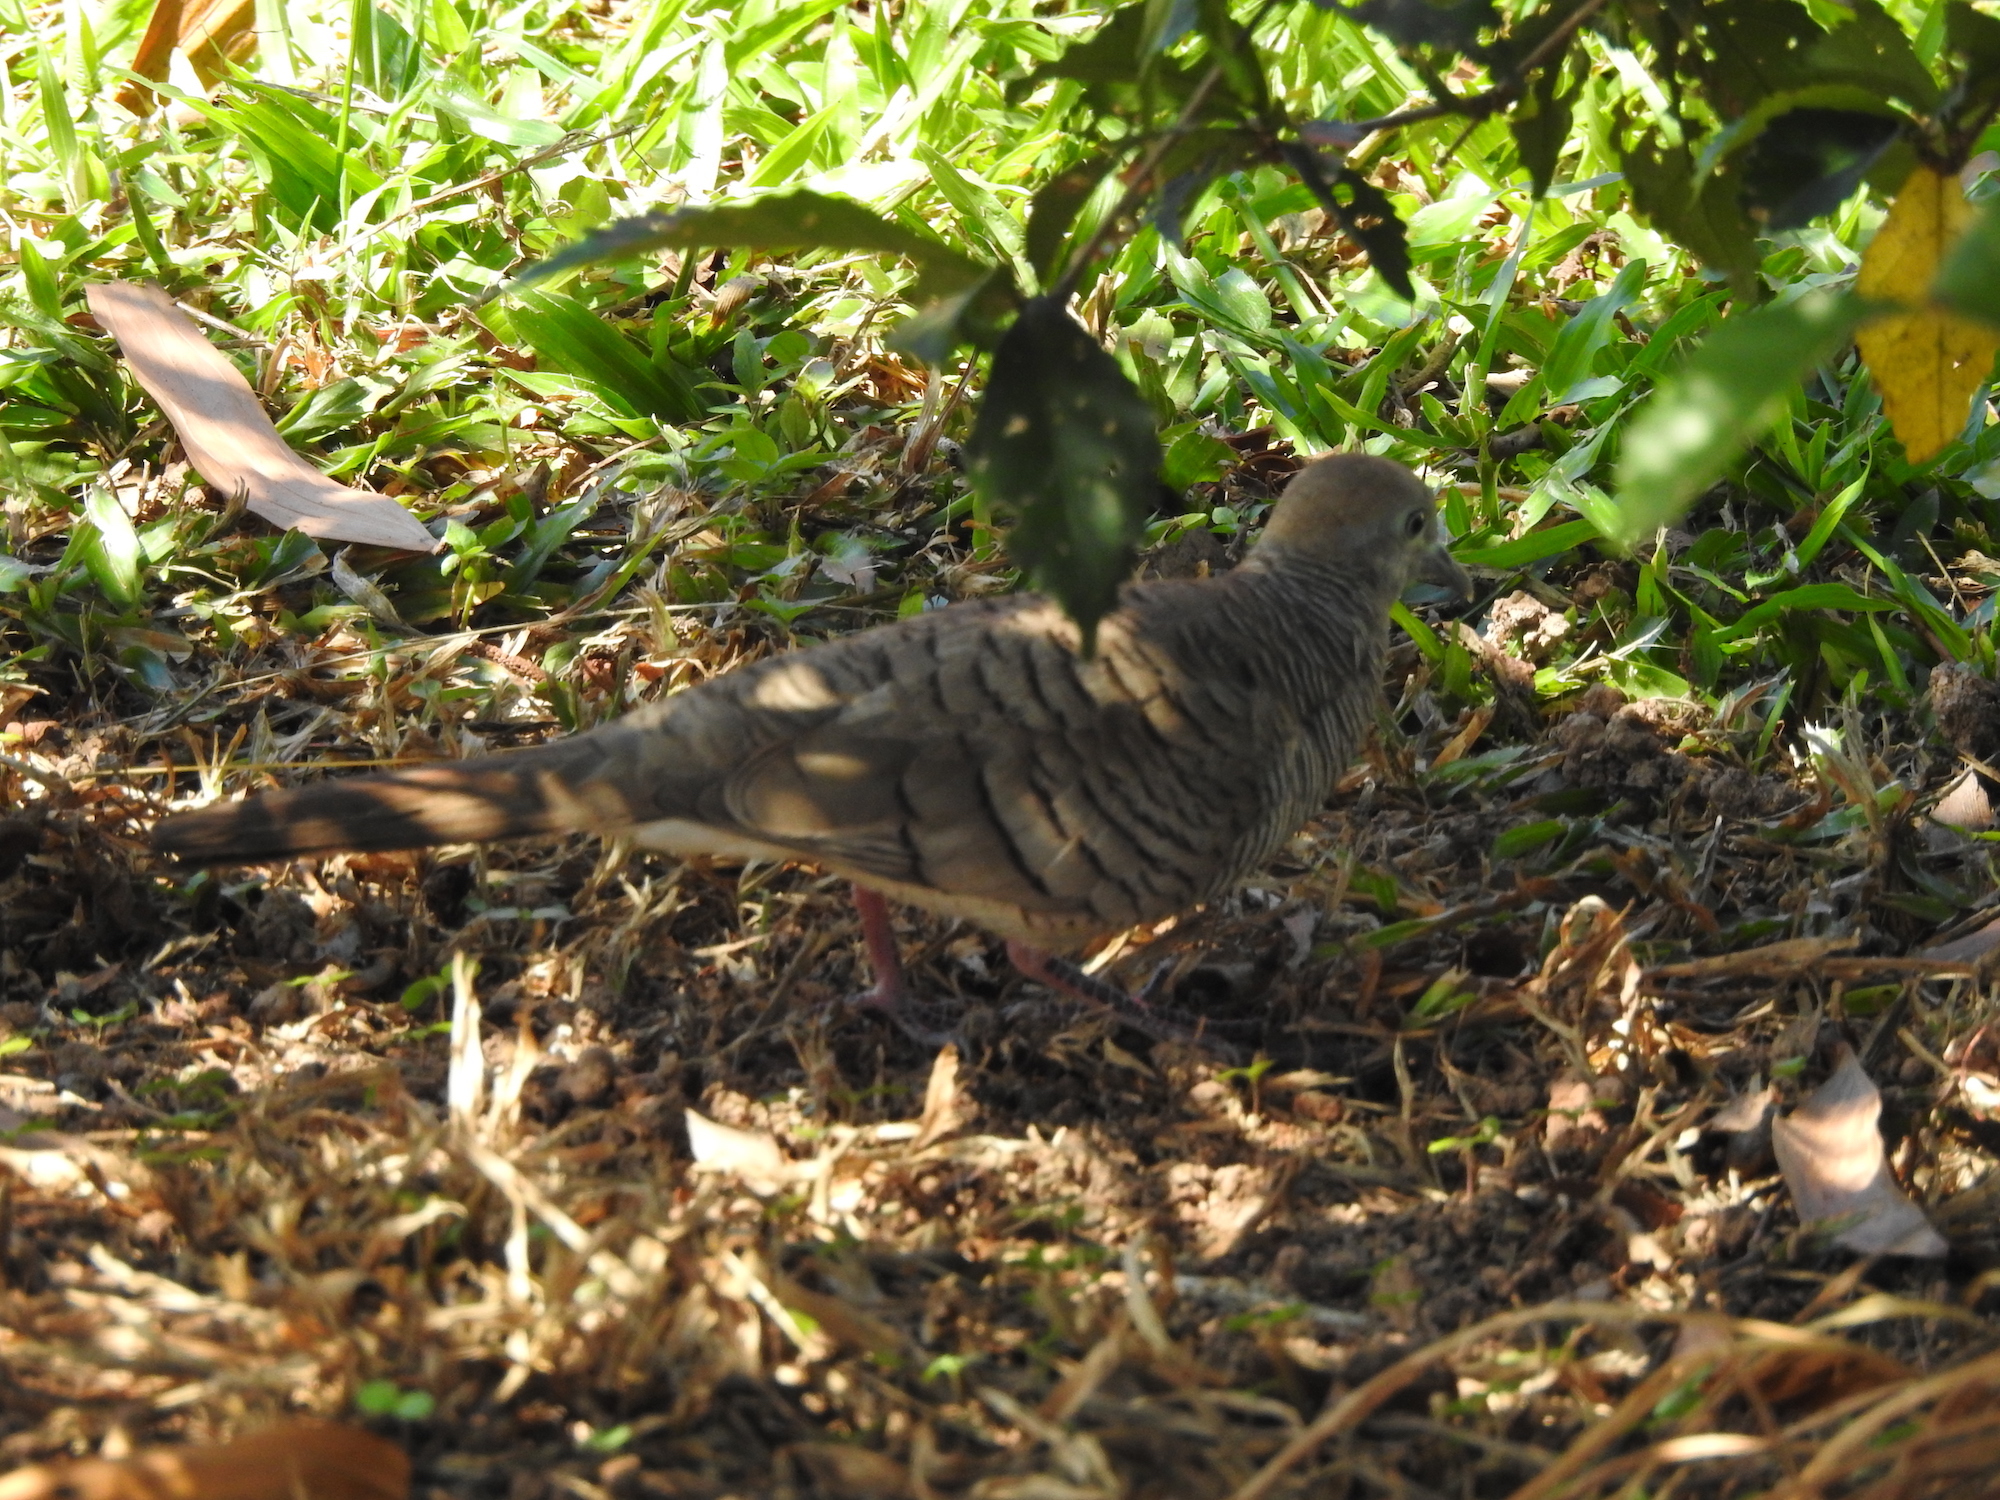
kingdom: Animalia
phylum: Chordata
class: Aves
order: Columbiformes
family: Columbidae
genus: Geopelia
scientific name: Geopelia striata
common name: Zebra dove
